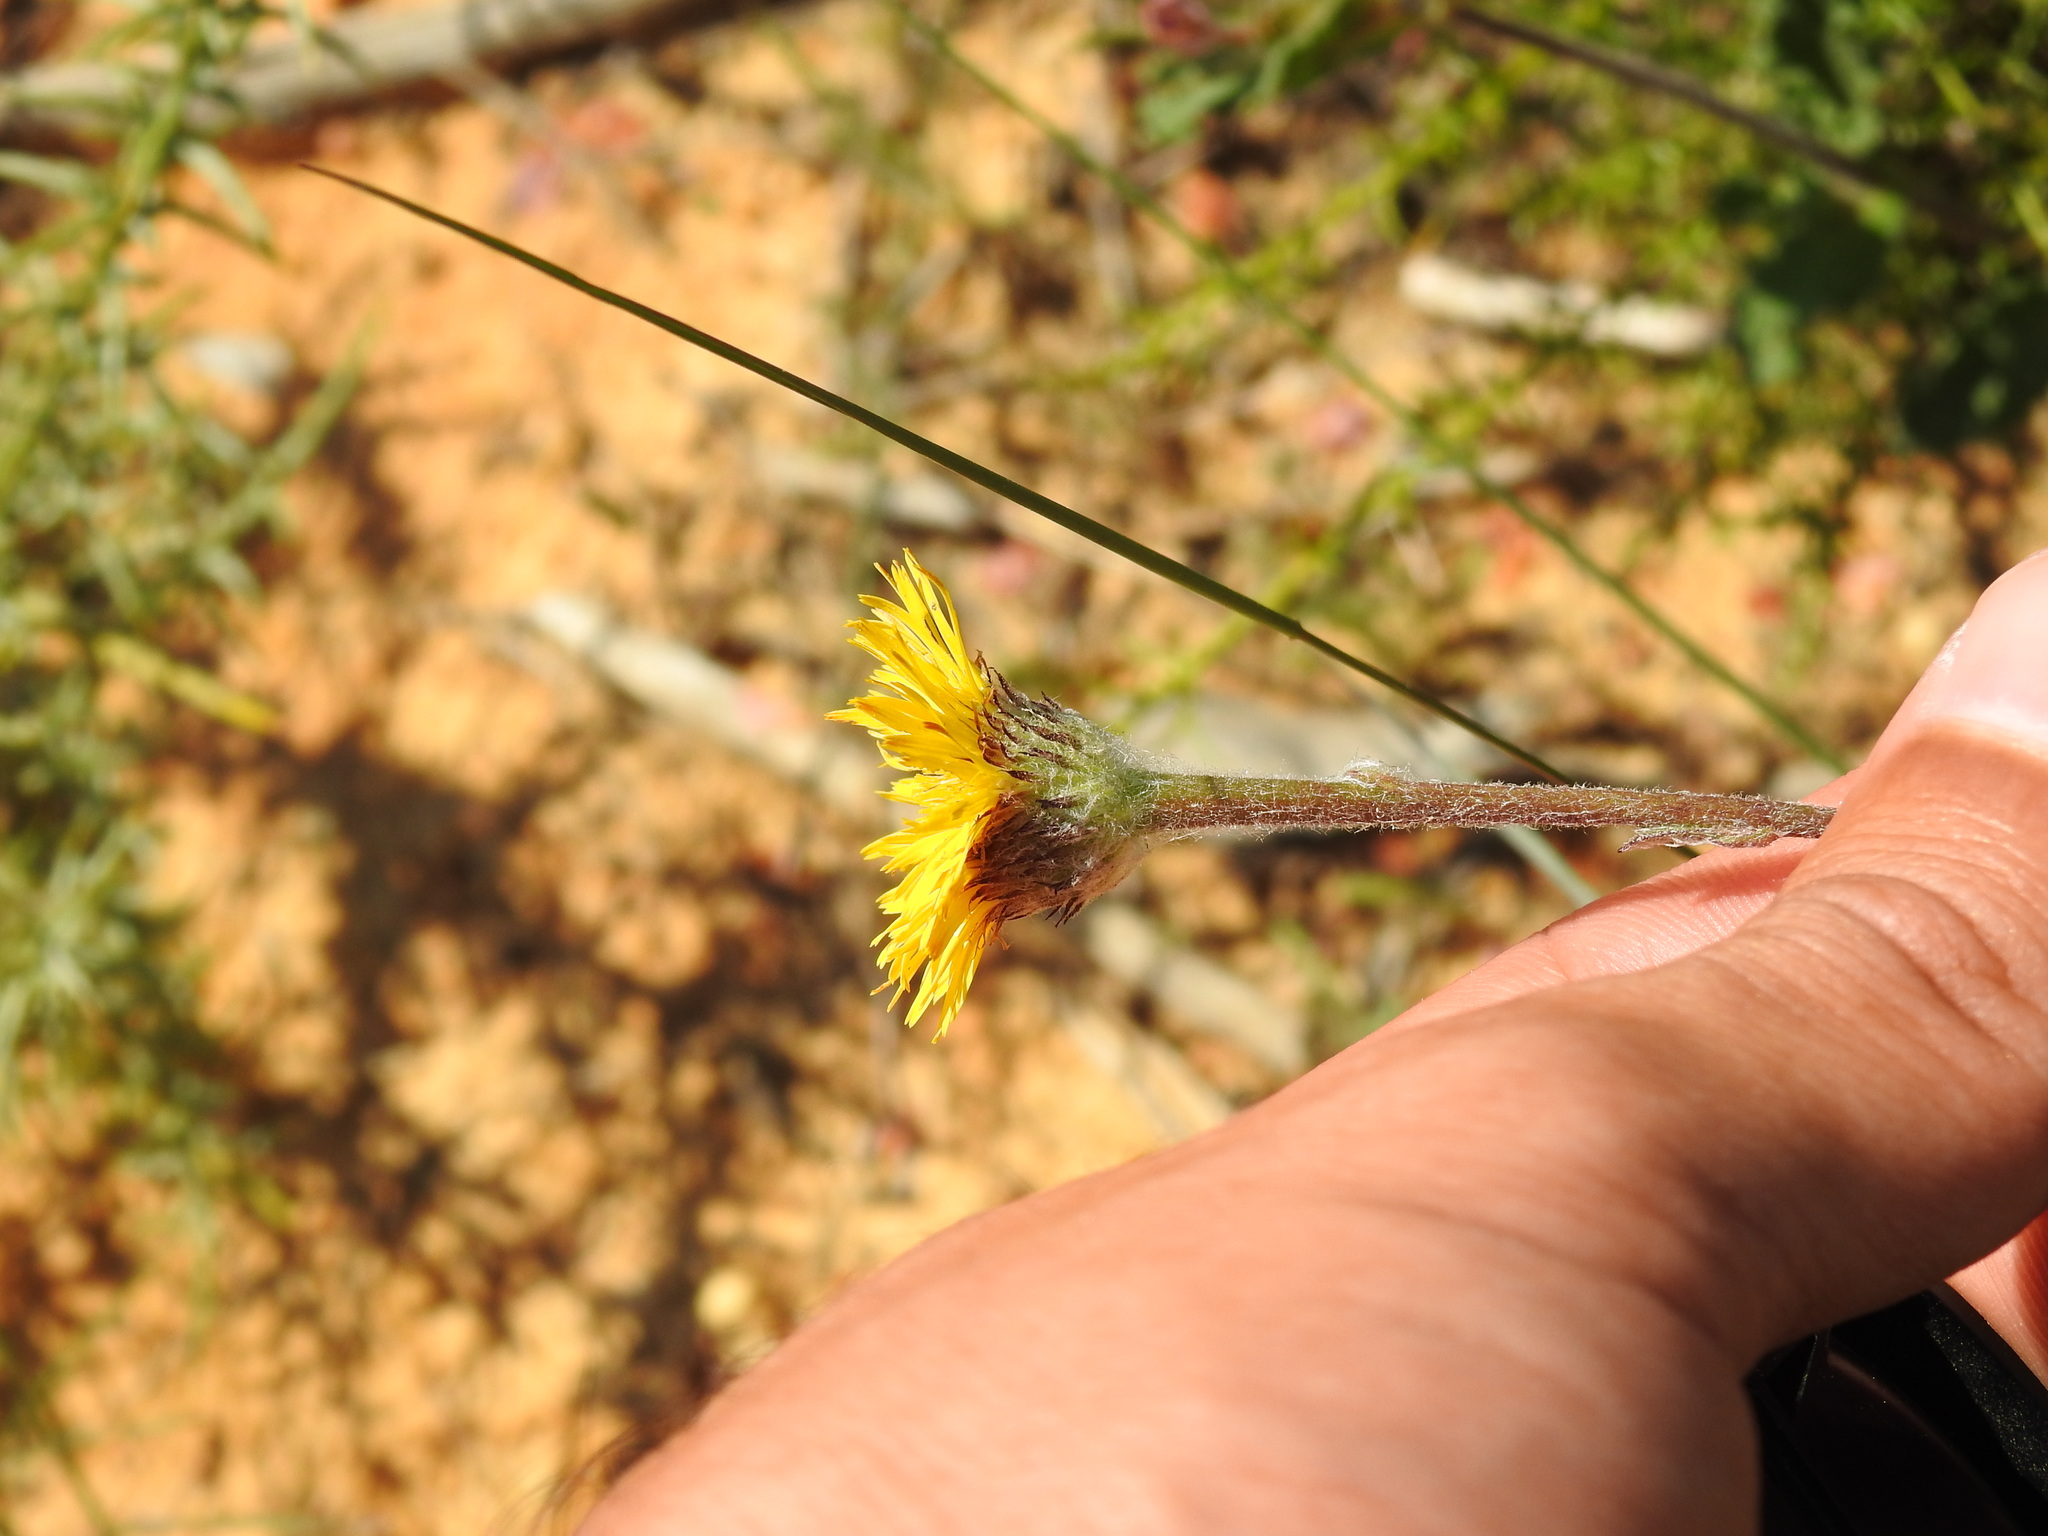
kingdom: Plantae
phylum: Tracheophyta
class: Magnoliopsida
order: Asterales
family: Asteraceae
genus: Pulicaria
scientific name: Pulicaria odora
